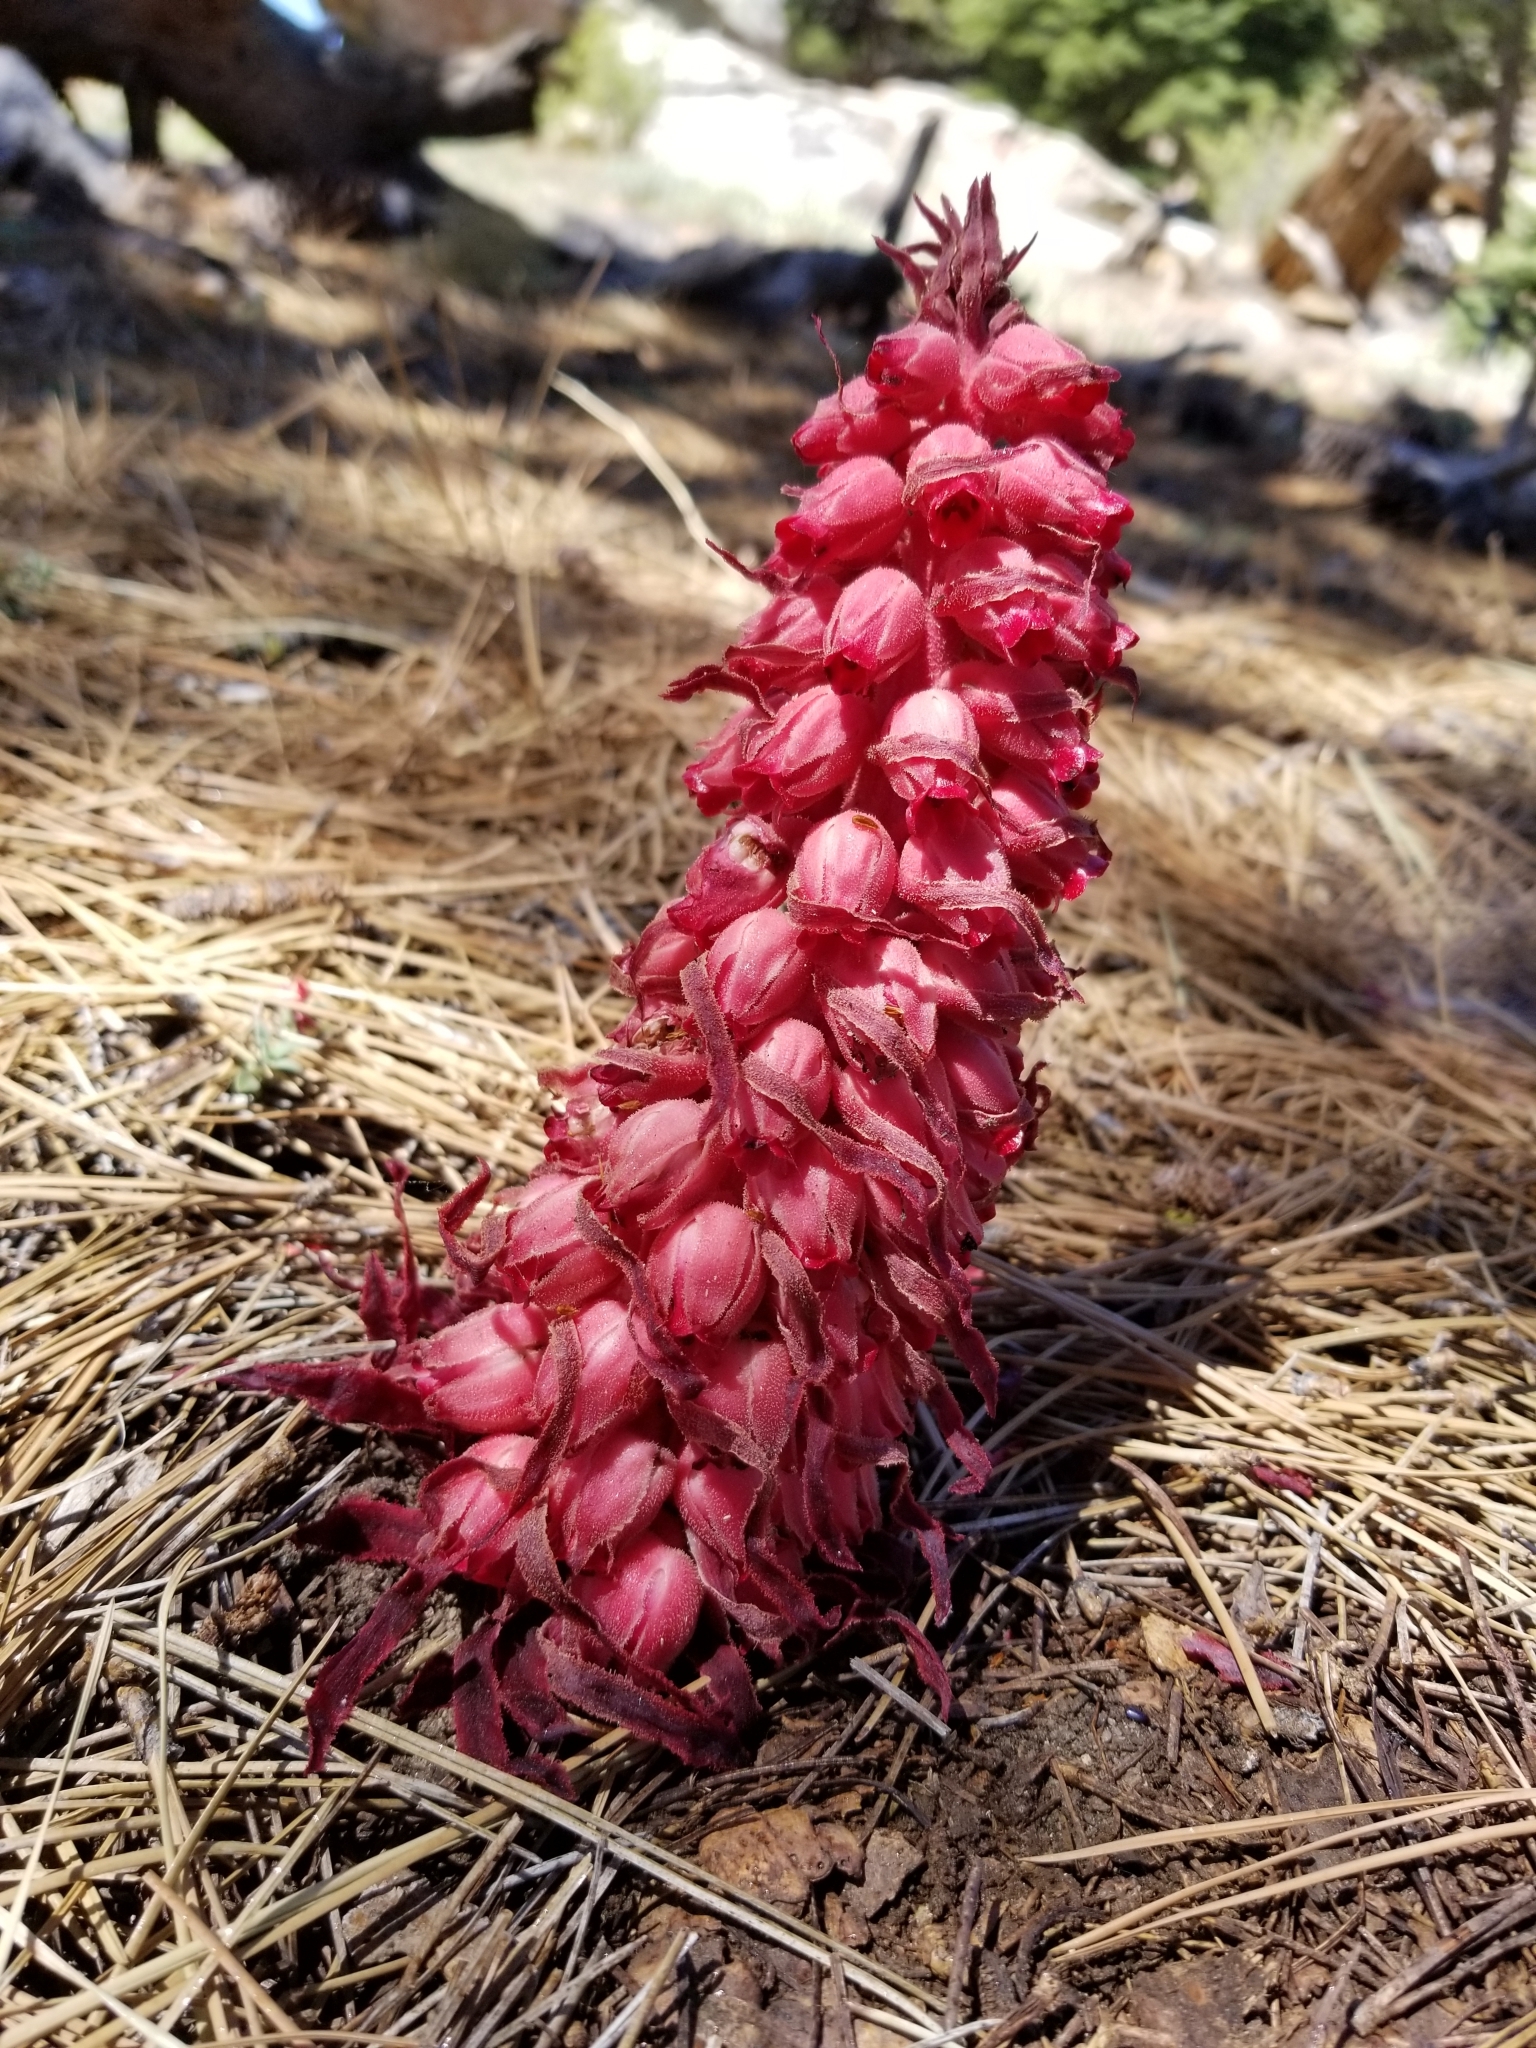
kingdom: Plantae
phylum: Tracheophyta
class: Magnoliopsida
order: Ericales
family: Ericaceae
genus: Sarcodes
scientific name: Sarcodes sanguinea
